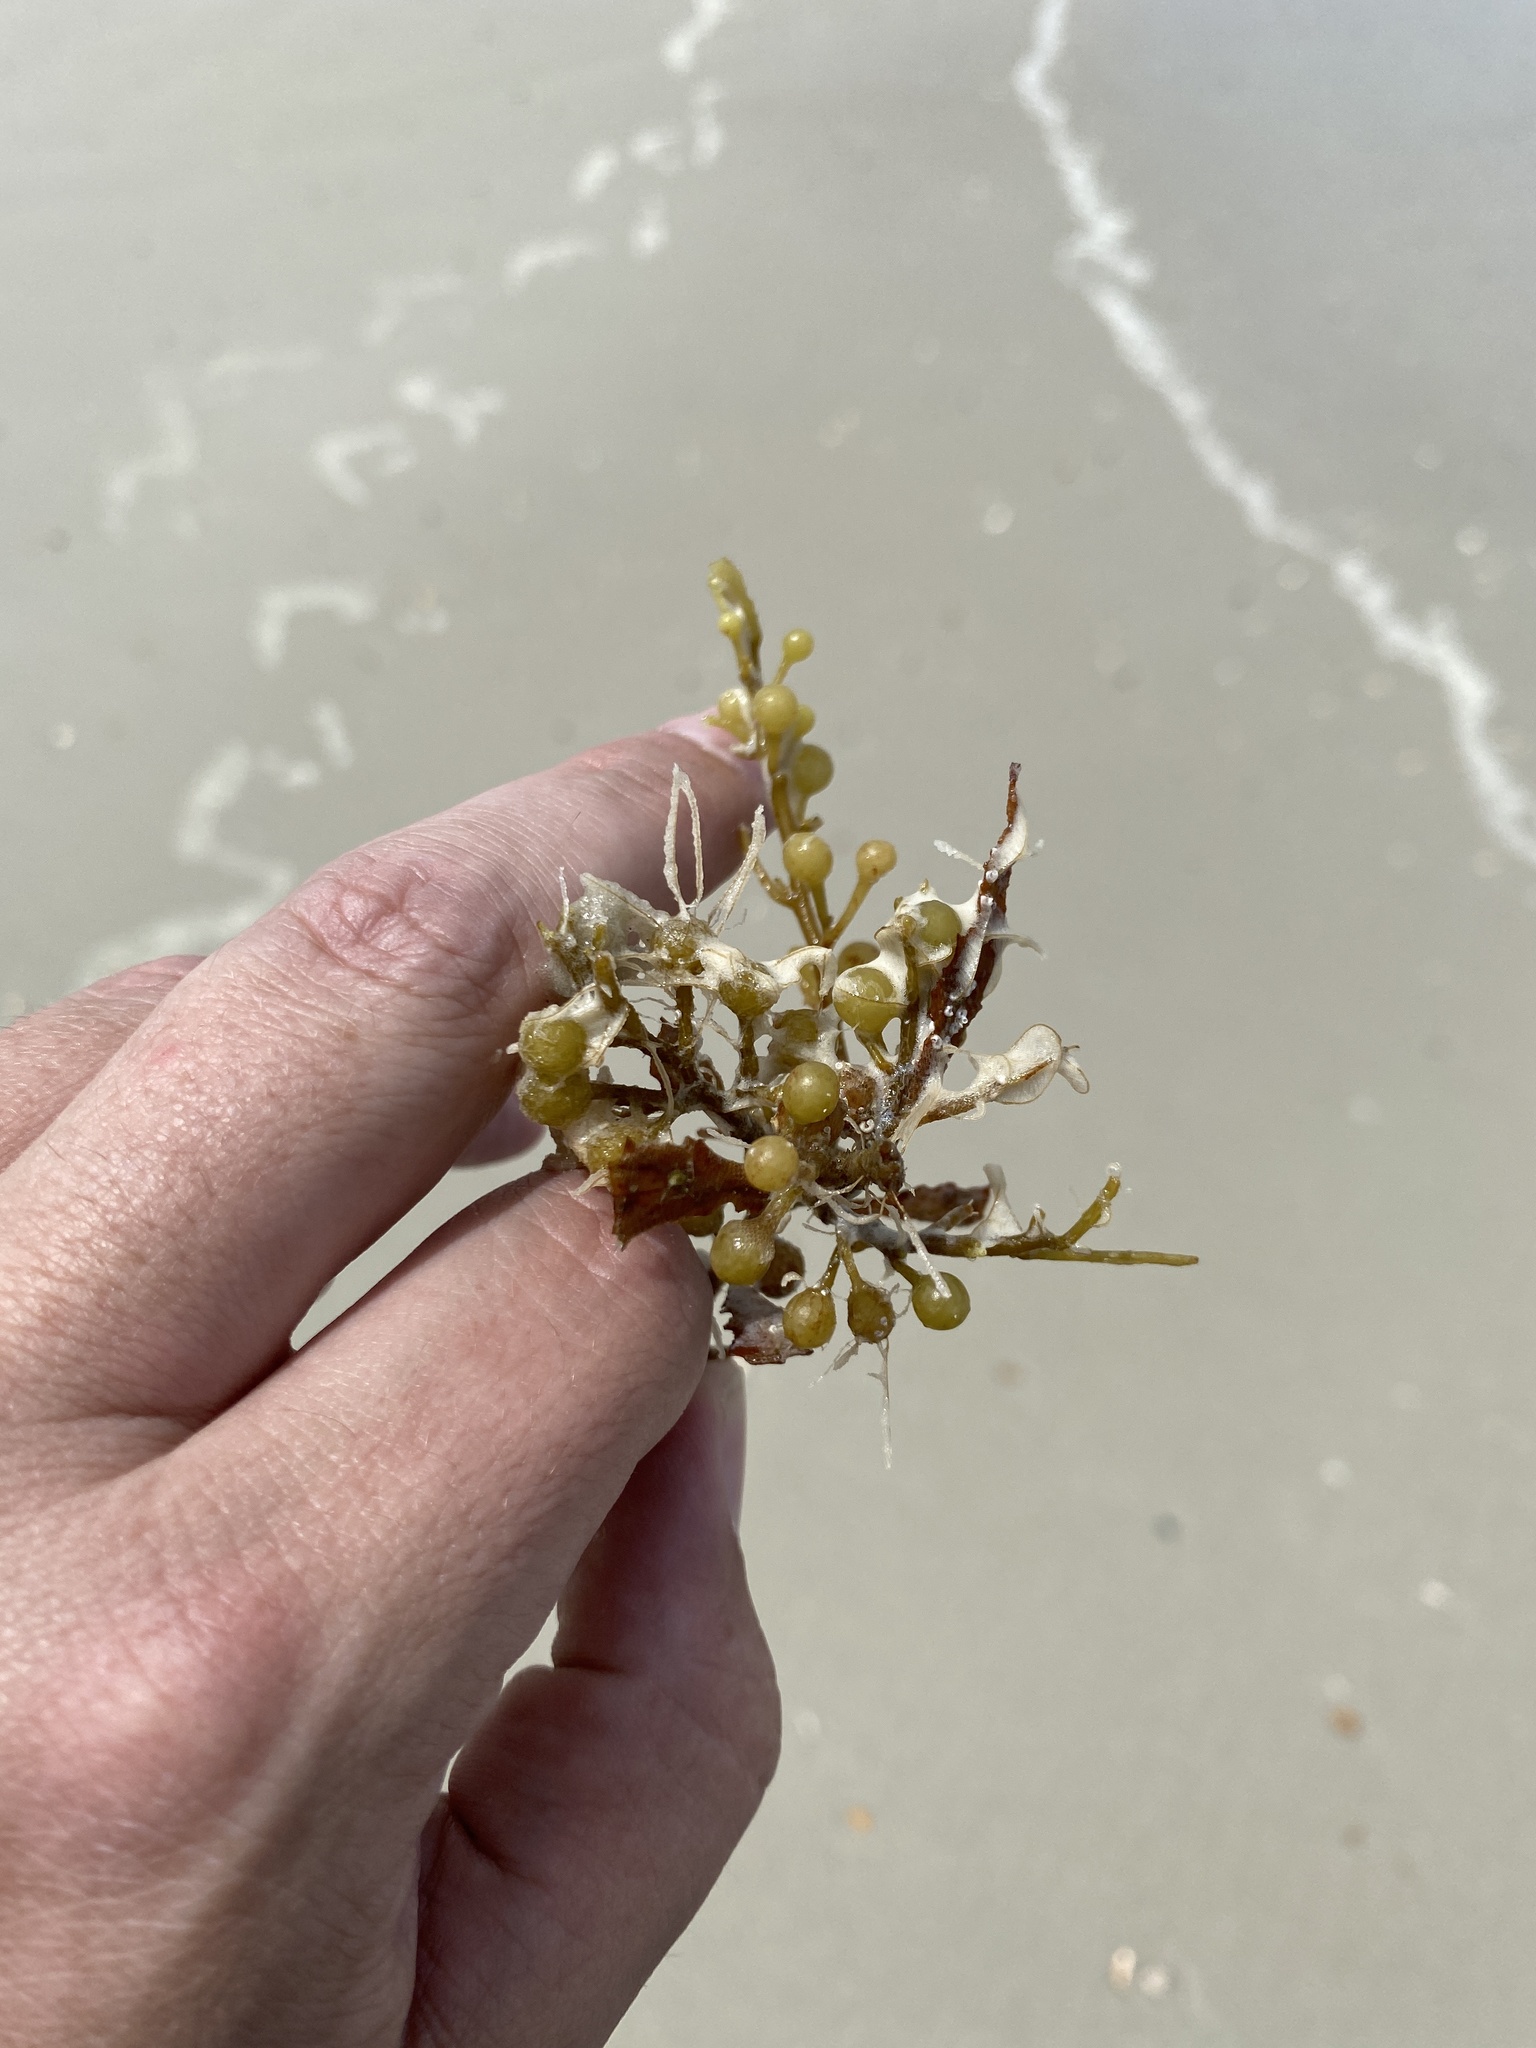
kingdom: Chromista
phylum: Ochrophyta
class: Phaeophyceae
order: Fucales
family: Sargassaceae
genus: Sargassum
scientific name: Sargassum fluitans
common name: Sargassum seaweed
